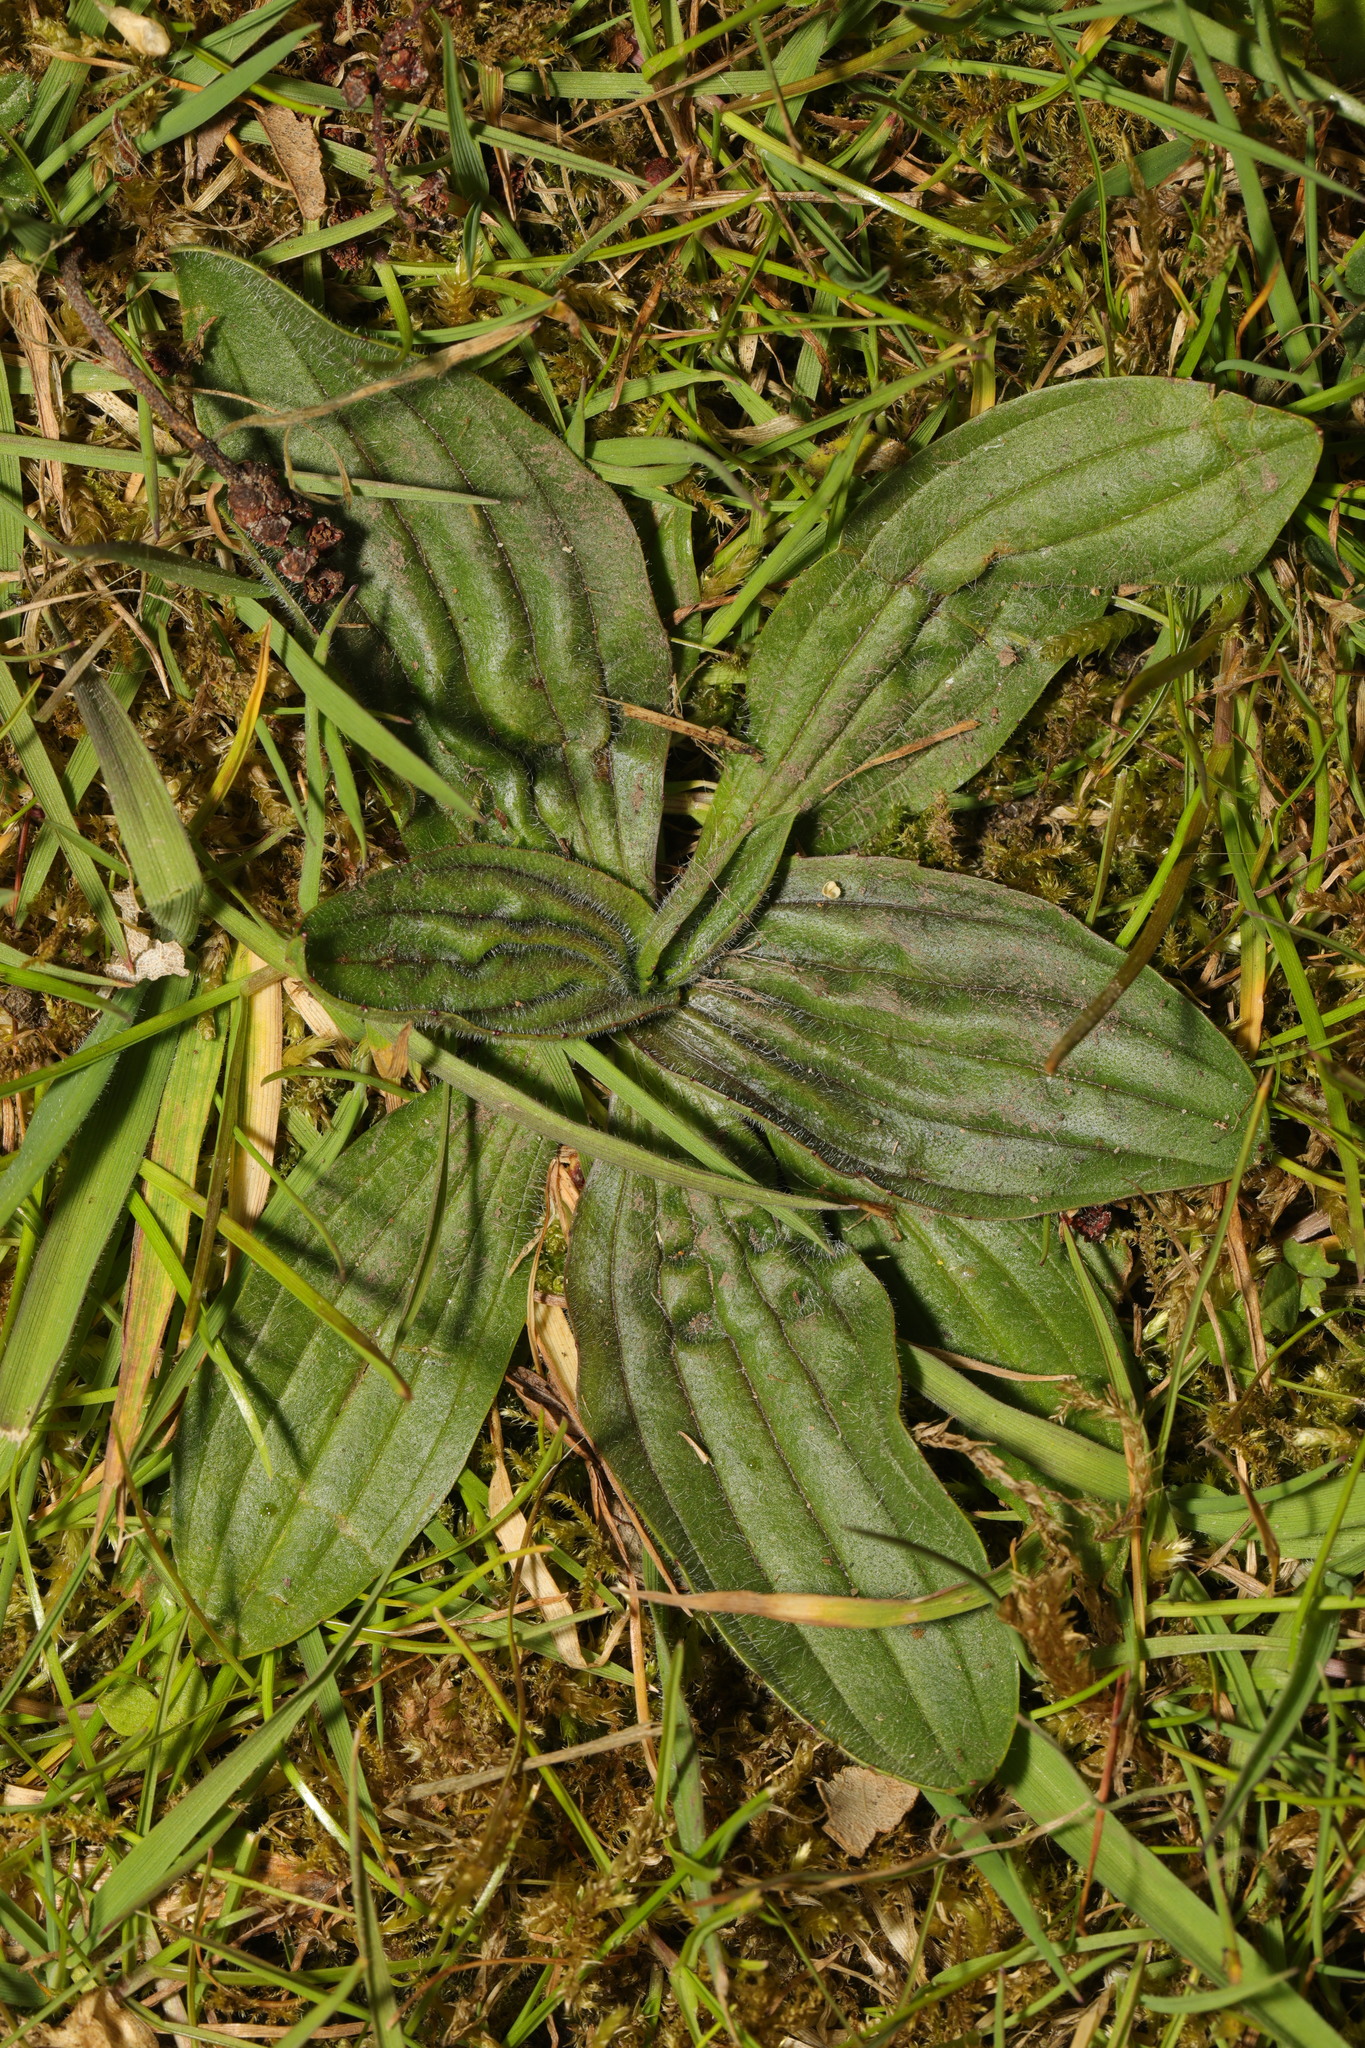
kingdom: Plantae
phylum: Tracheophyta
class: Magnoliopsida
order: Lamiales
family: Plantaginaceae
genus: Plantago
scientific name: Plantago media
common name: Hoary plantain
